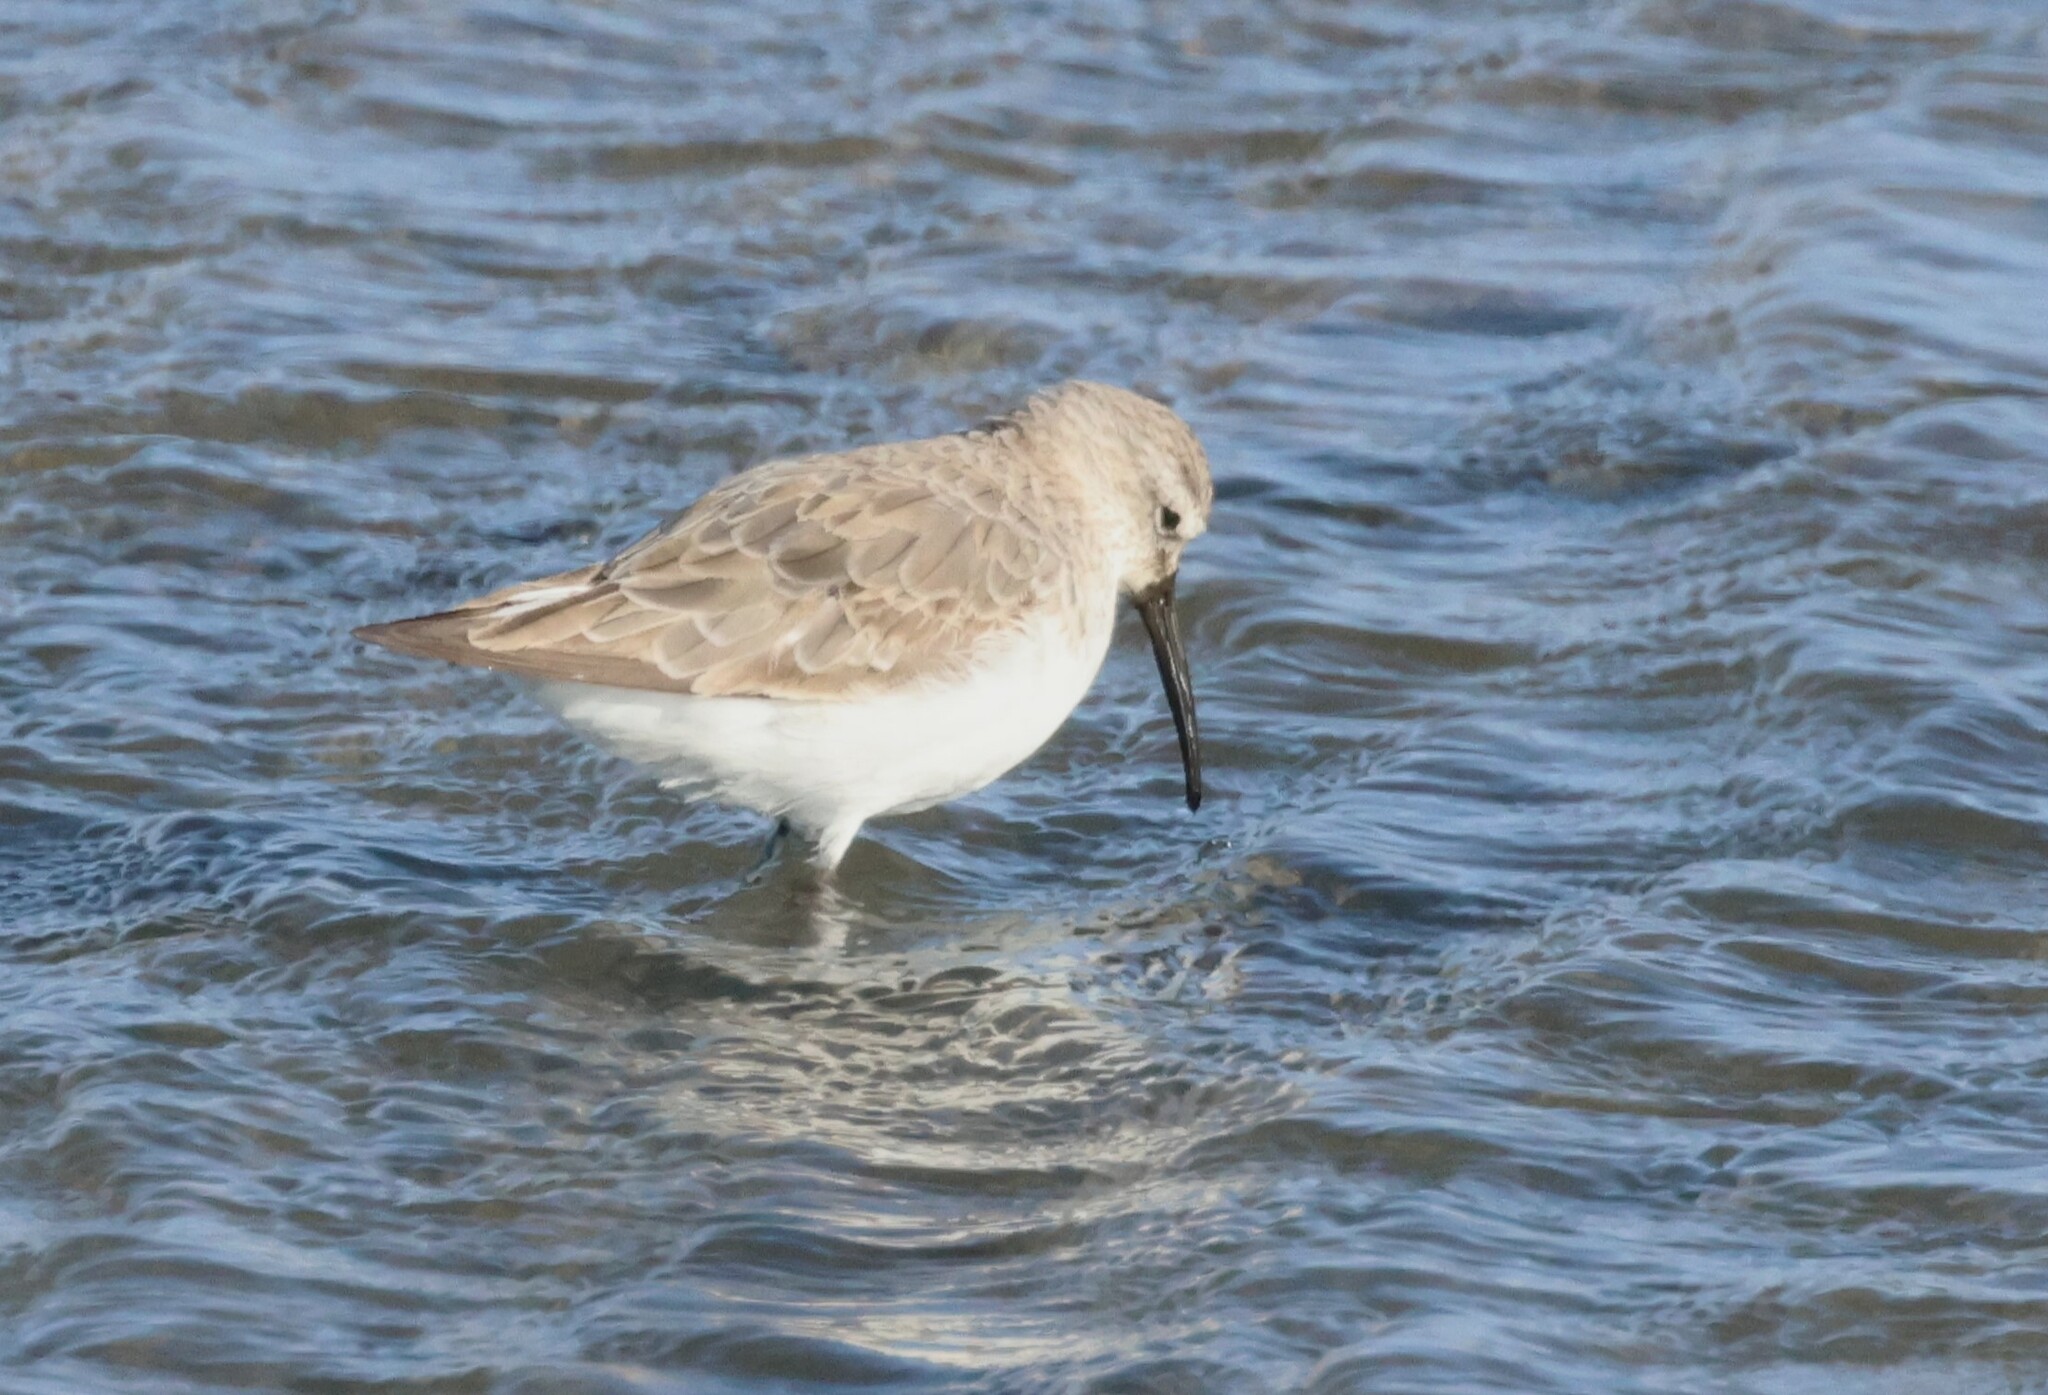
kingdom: Animalia
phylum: Chordata
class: Aves
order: Charadriiformes
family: Scolopacidae
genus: Calidris
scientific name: Calidris ferruginea
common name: Curlew sandpiper
